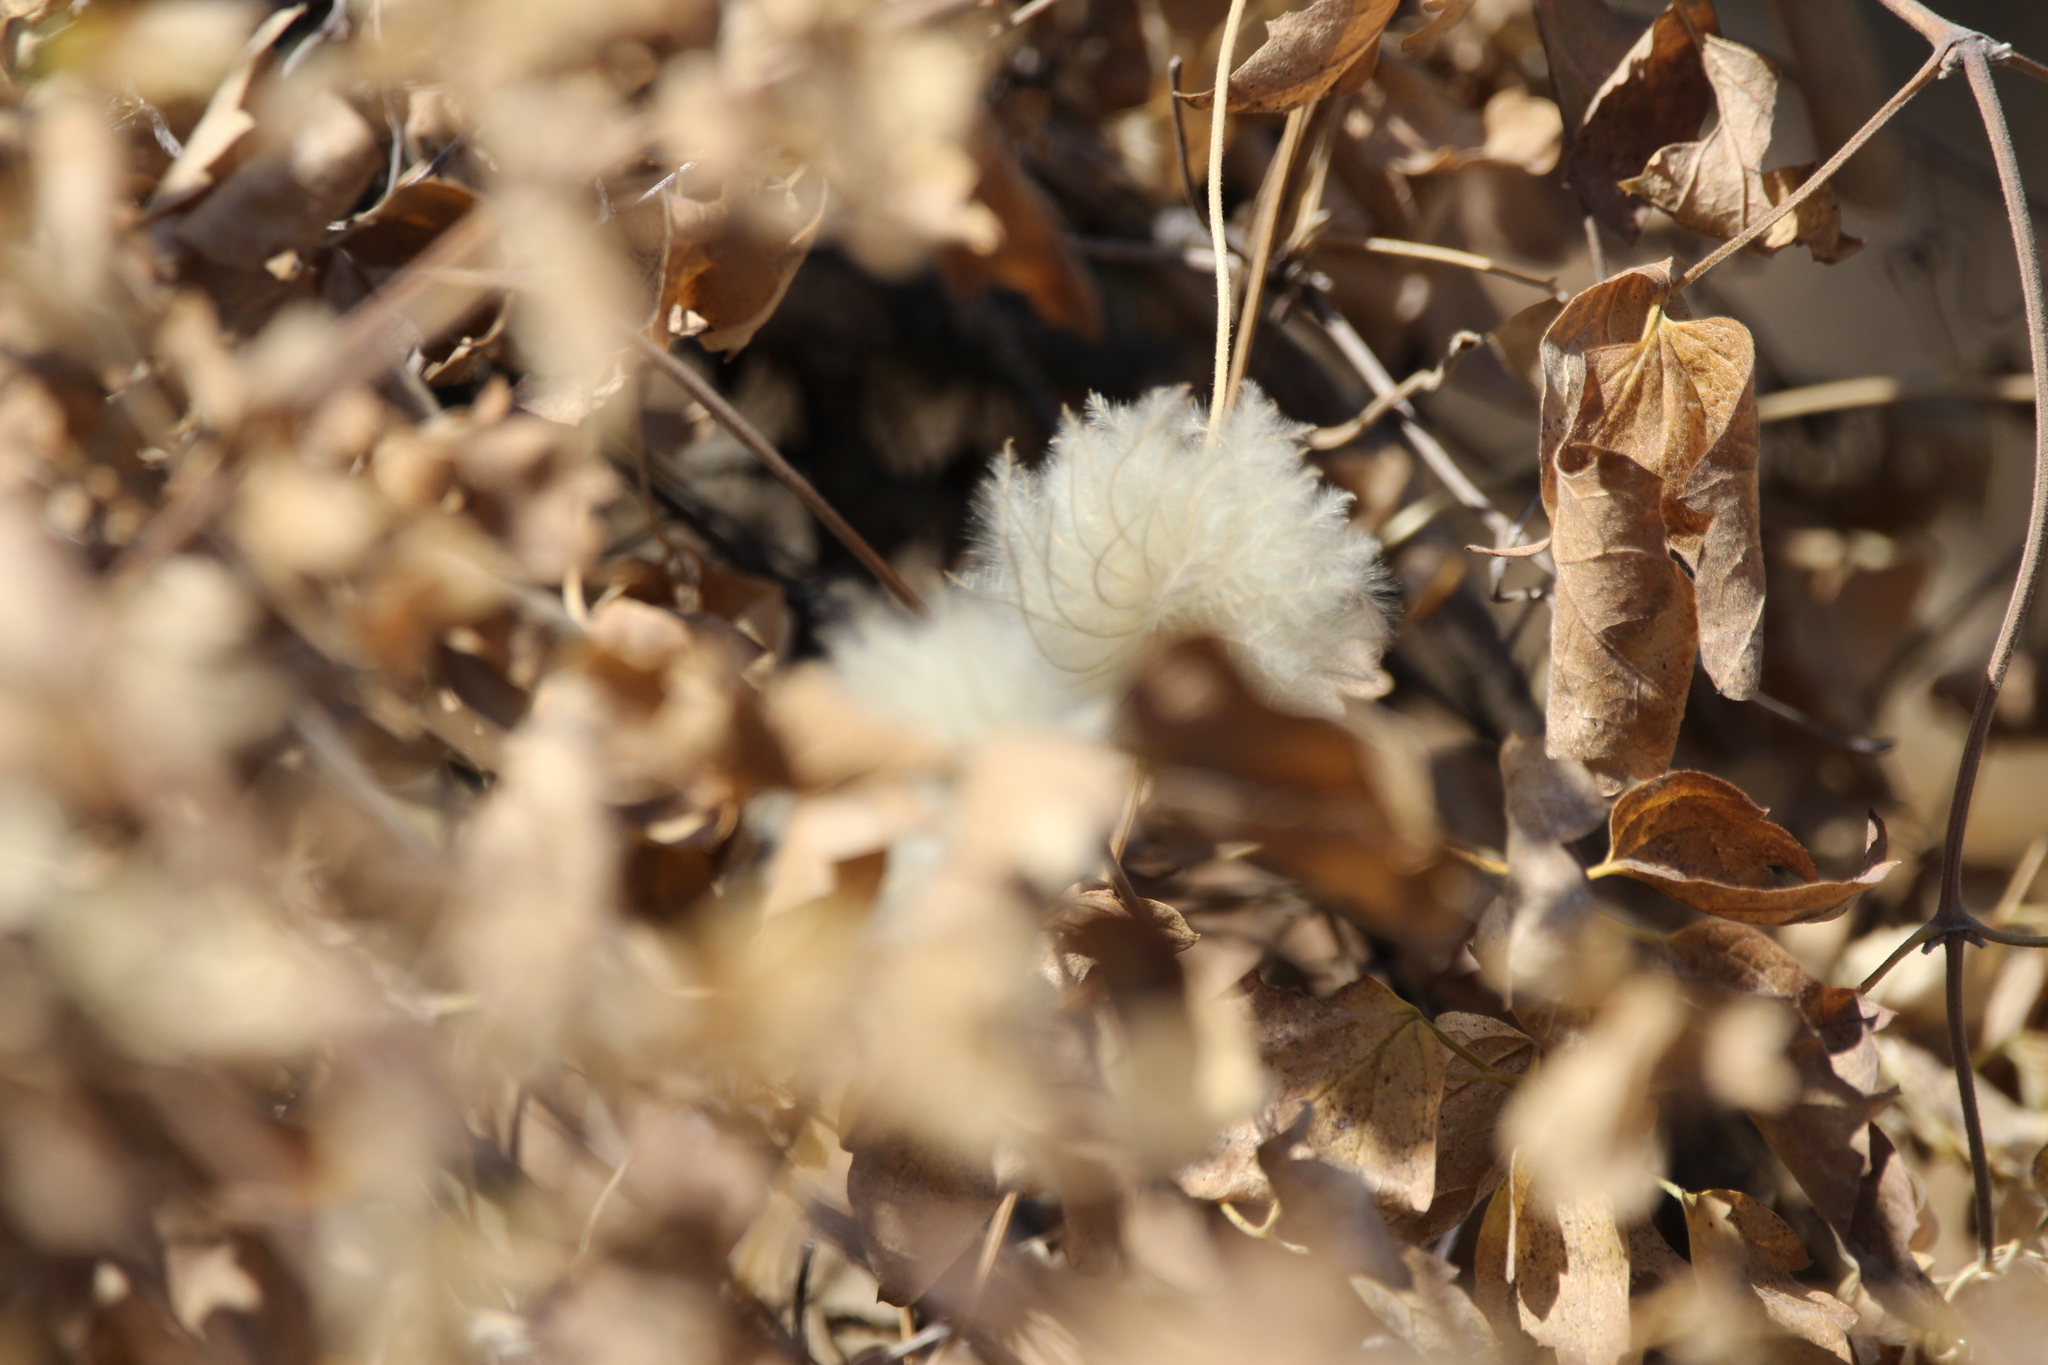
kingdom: Plantae
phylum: Tracheophyta
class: Magnoliopsida
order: Ranunculales
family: Ranunculaceae
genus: Clematis
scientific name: Clematis lasiantha
